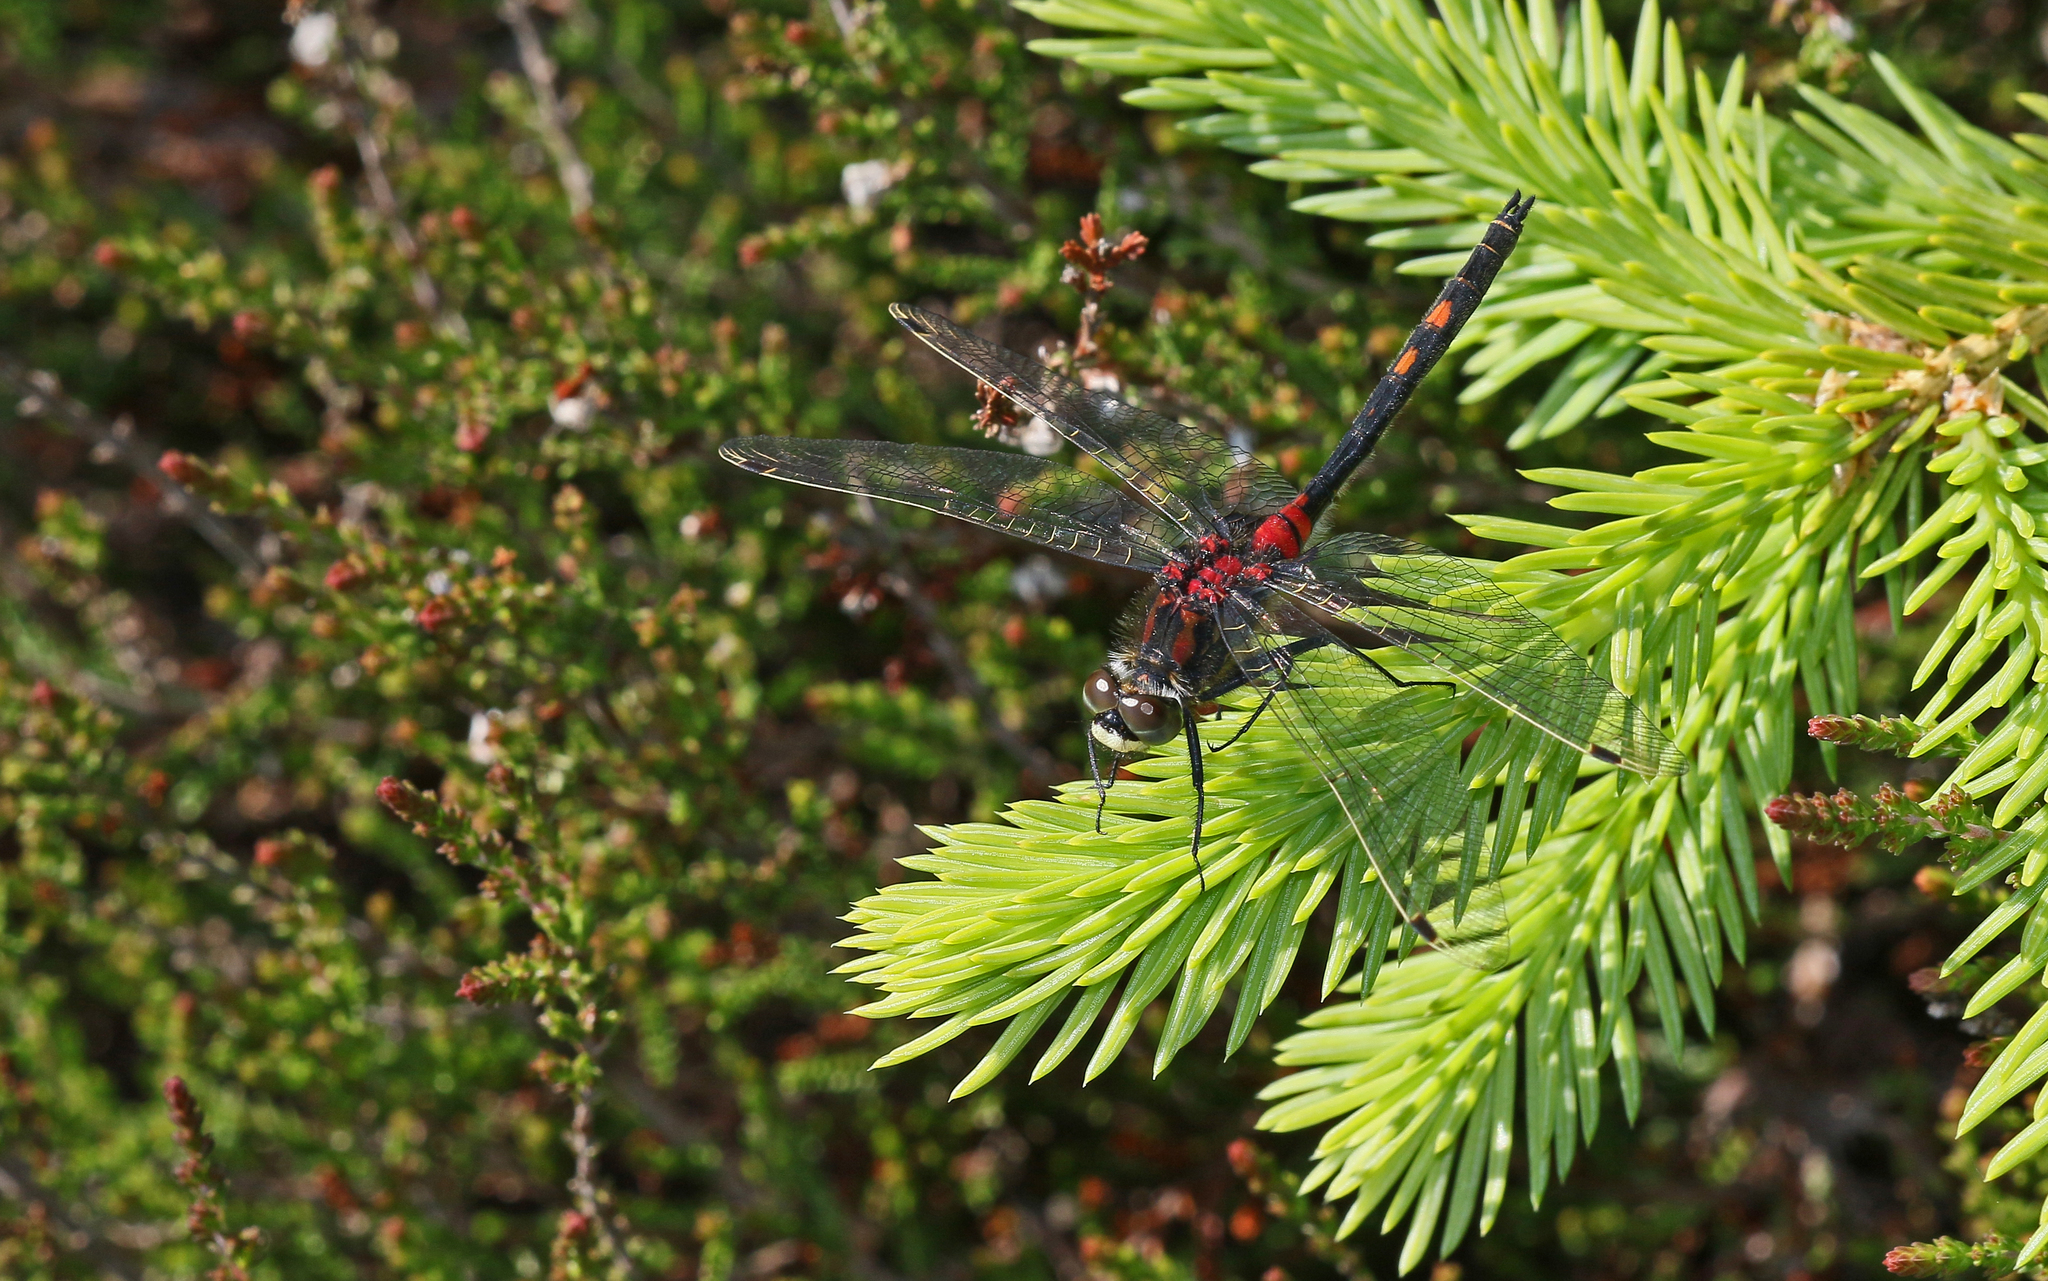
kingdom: Animalia
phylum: Arthropoda
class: Insecta
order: Odonata
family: Libellulidae
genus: Leucorrhinia
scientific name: Leucorrhinia dubia
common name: White-faced darter
